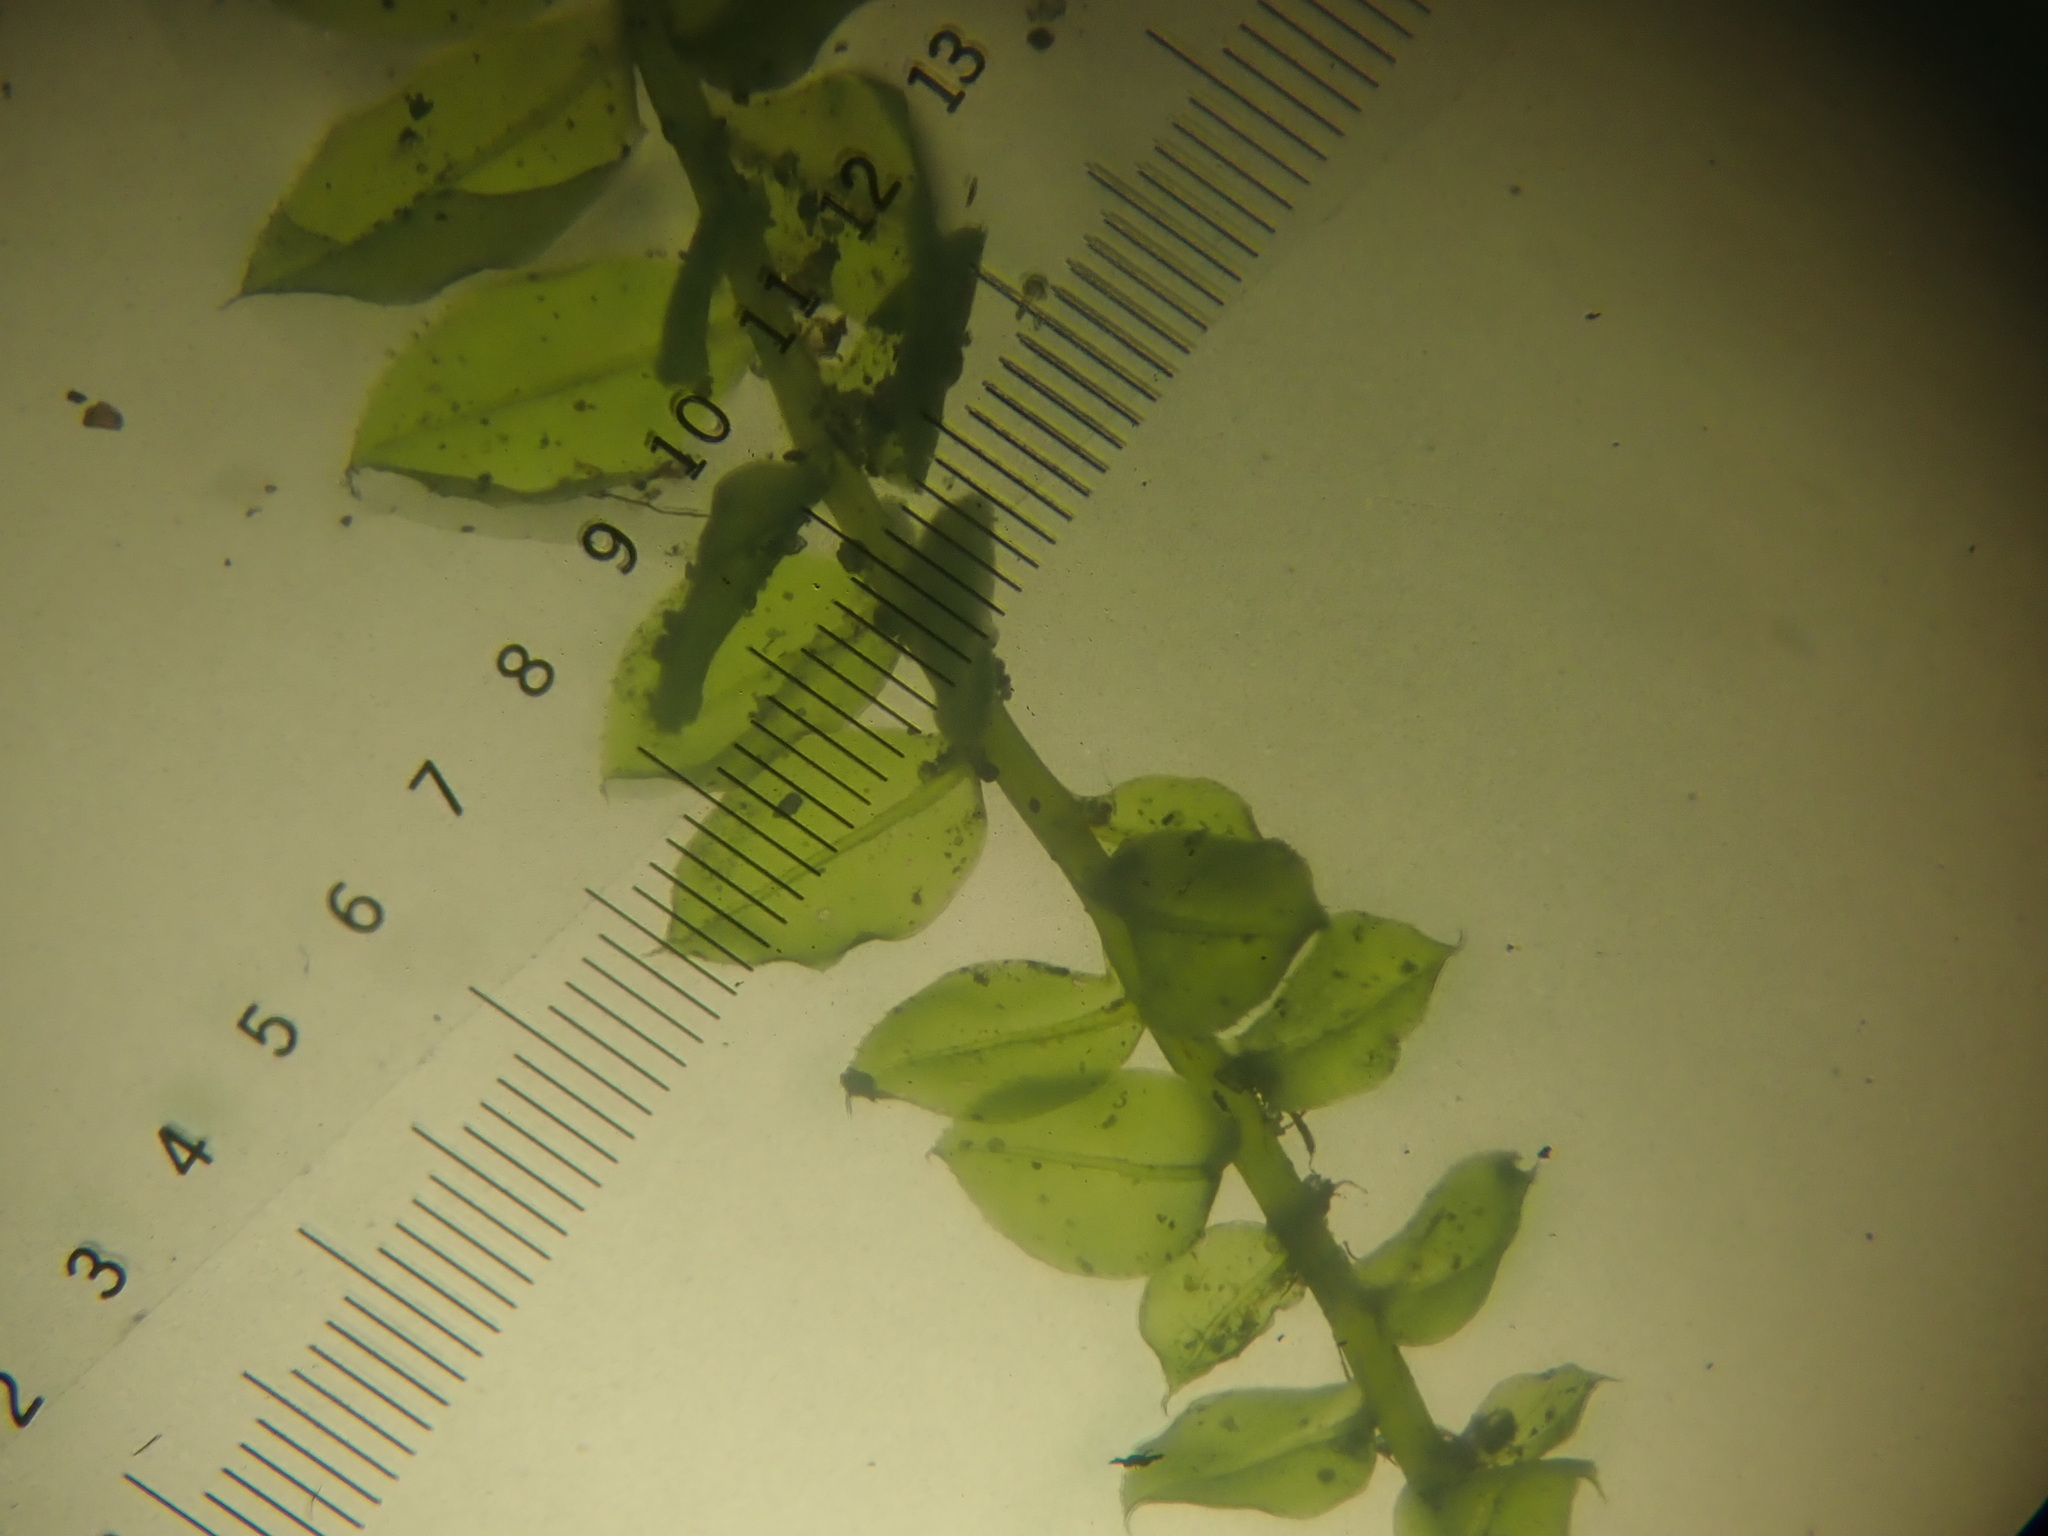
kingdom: Plantae
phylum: Bryophyta
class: Bryopsida
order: Bryales
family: Mniaceae
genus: Plagiomnium
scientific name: Plagiomnium cuspidatum
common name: Woodsy leafy moss
